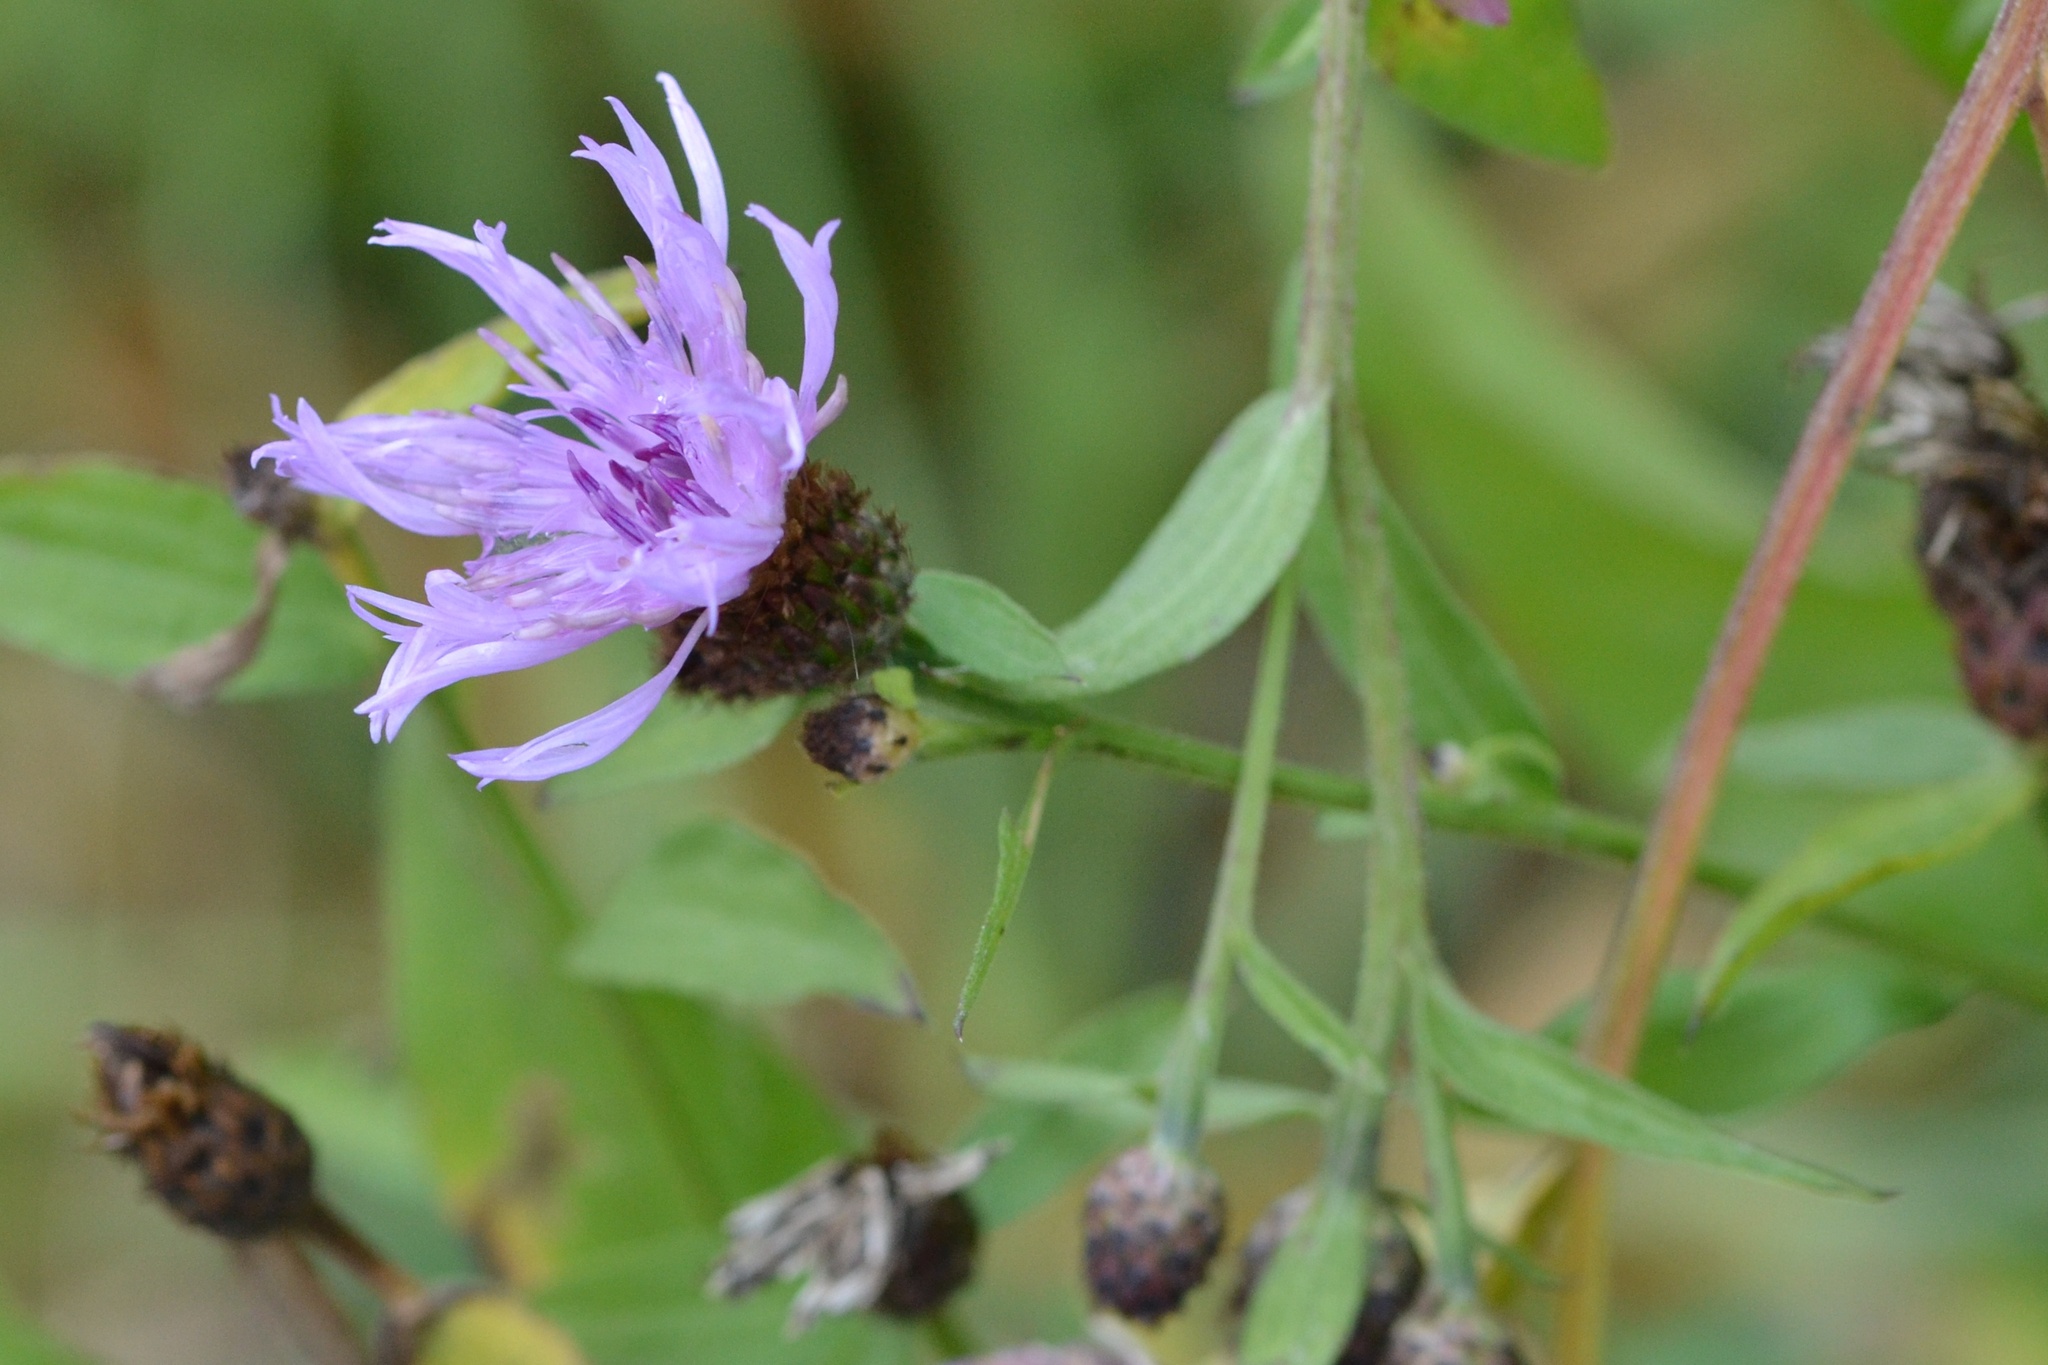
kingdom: Plantae
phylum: Tracheophyta
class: Magnoliopsida
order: Asterales
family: Asteraceae
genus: Centaurea
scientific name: Centaurea nigrescens
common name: Tyrol knapweed
